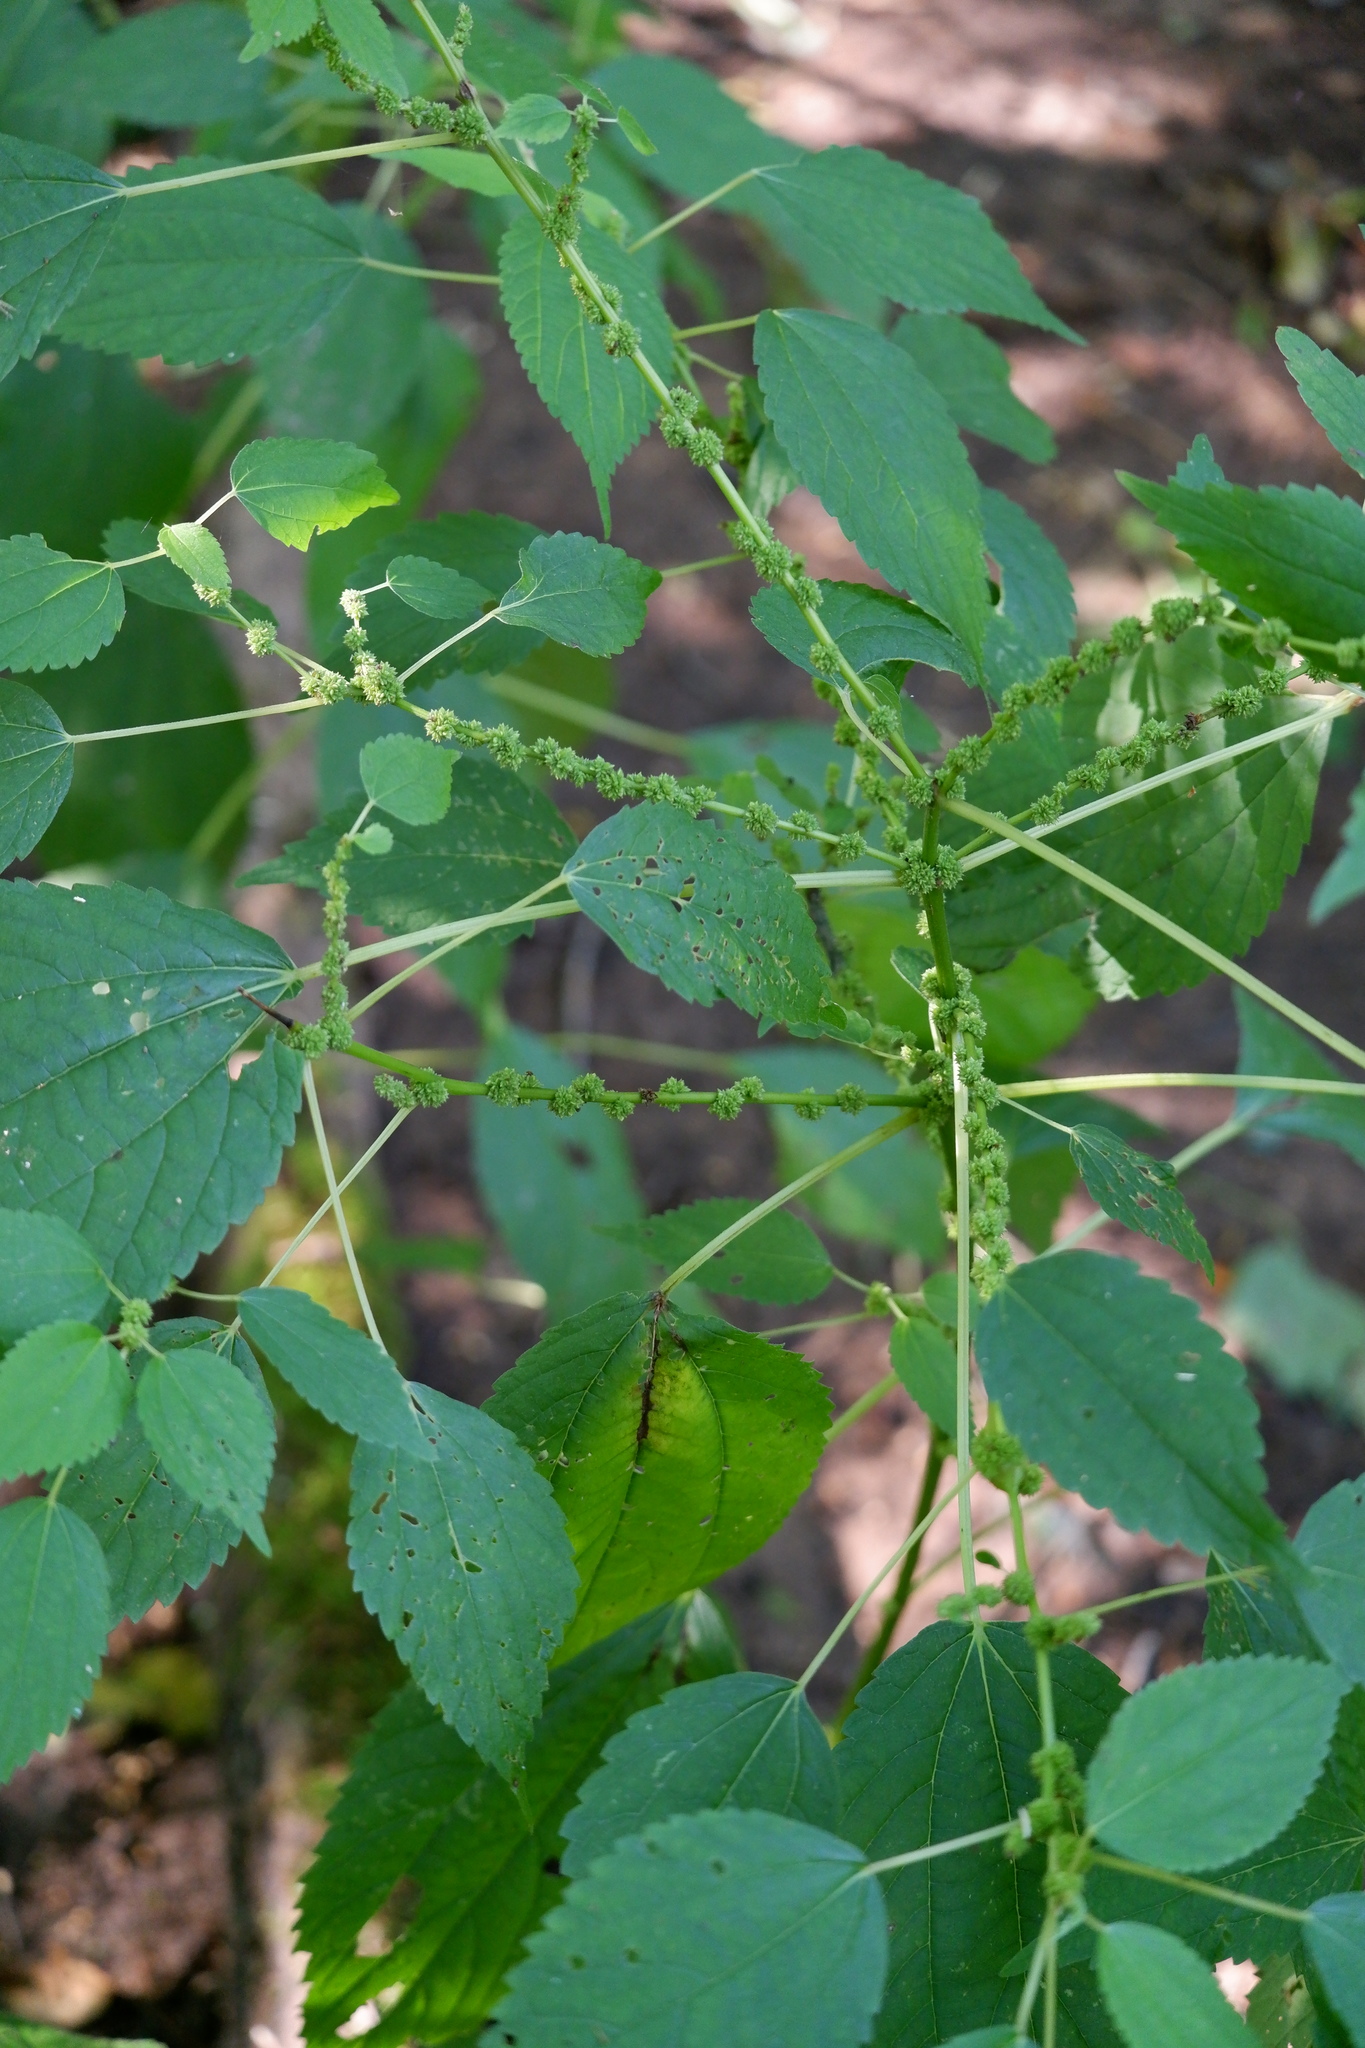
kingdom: Plantae
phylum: Tracheophyta
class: Magnoliopsida
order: Rosales
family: Urticaceae
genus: Boehmeria
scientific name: Boehmeria cylindrica
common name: Bog-hemp
